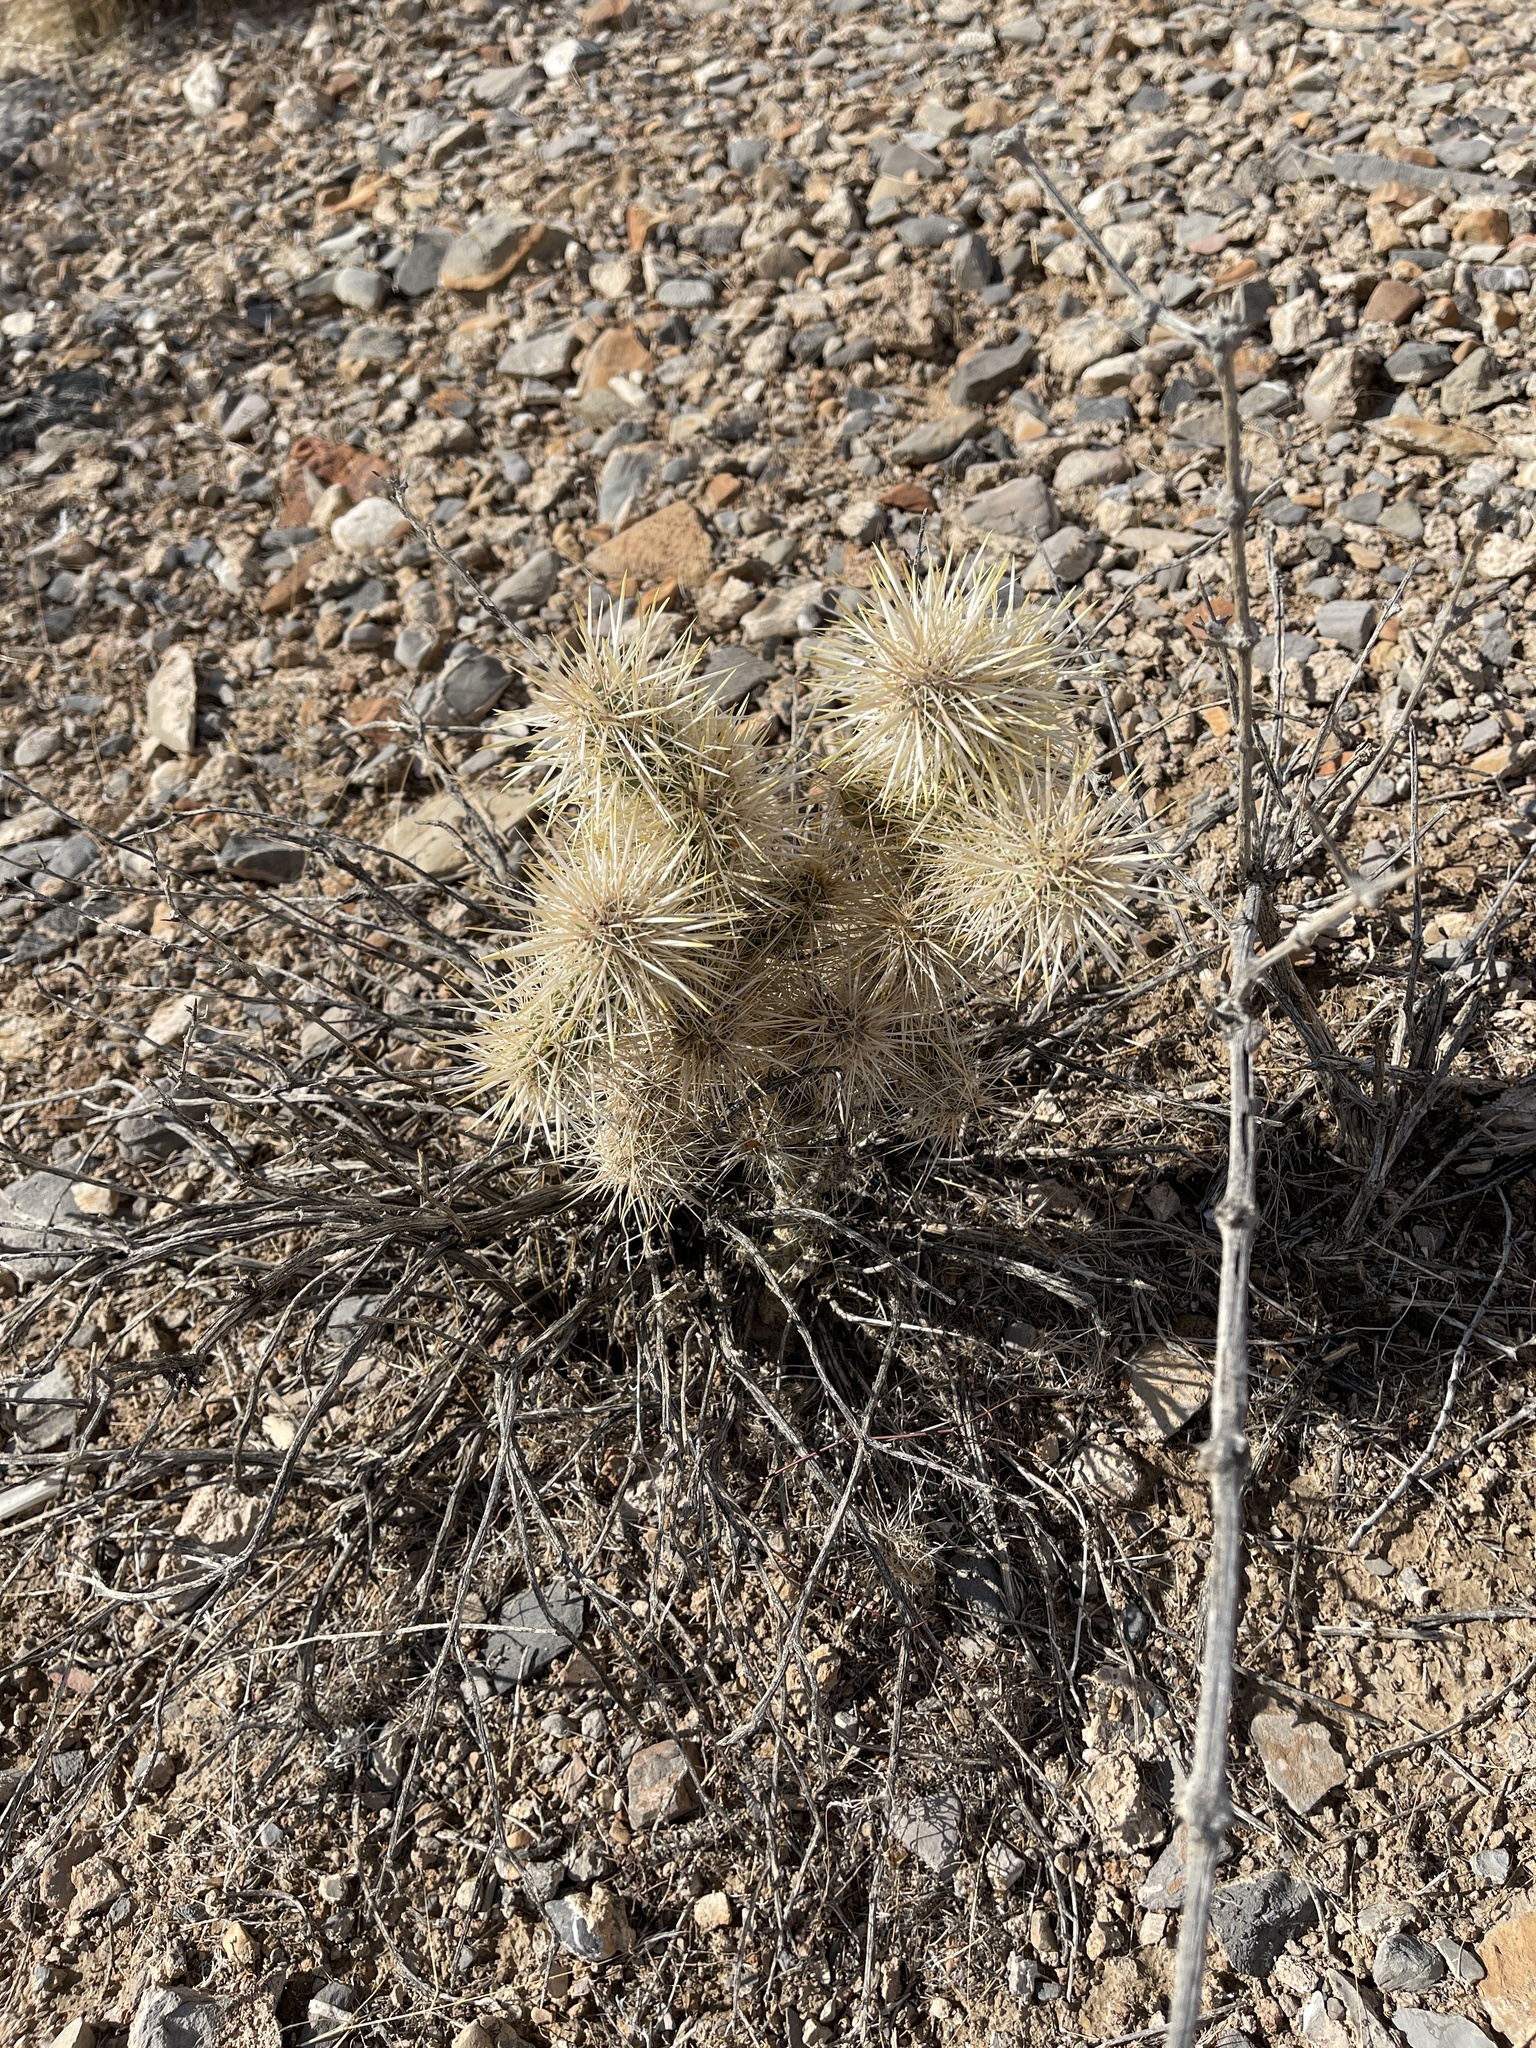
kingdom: Plantae
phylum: Tracheophyta
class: Magnoliopsida
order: Caryophyllales
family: Cactaceae
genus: Cylindropuntia
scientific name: Cylindropuntia echinocarpa
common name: Ground cholla
